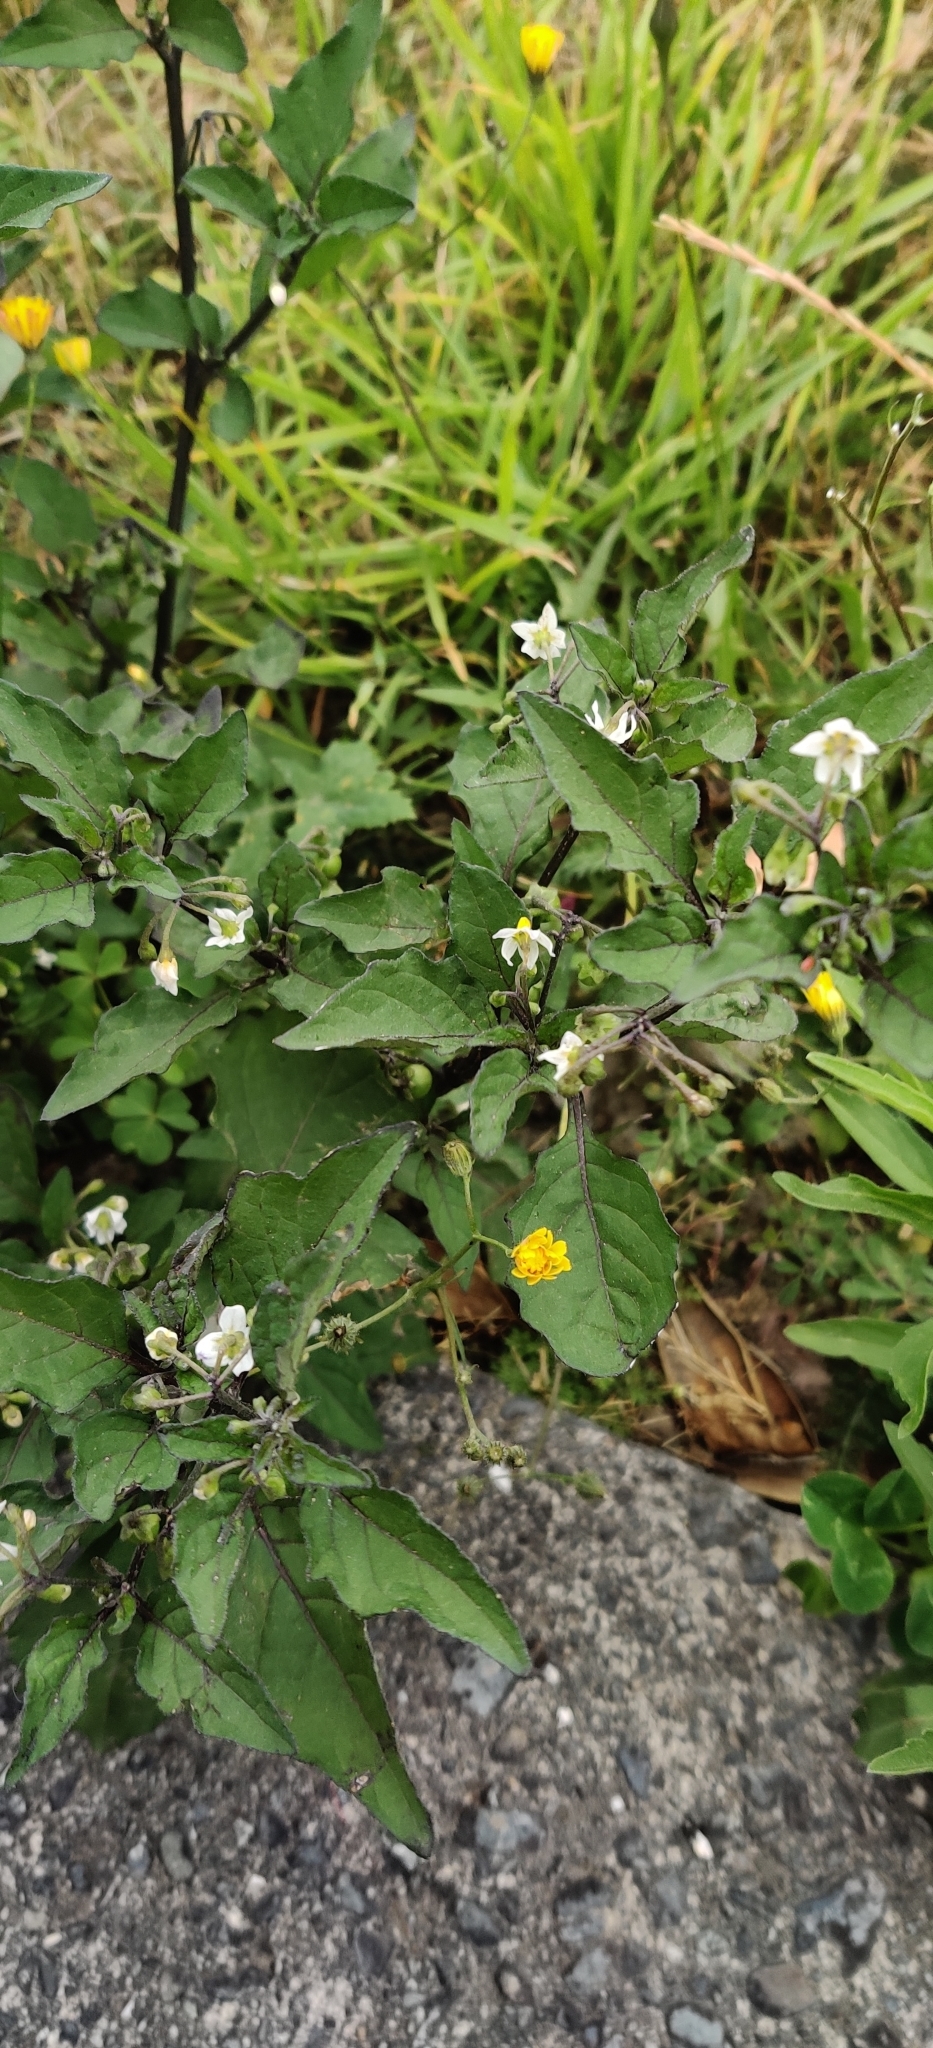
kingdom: Plantae
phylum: Tracheophyta
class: Magnoliopsida
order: Solanales
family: Solanaceae
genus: Solanum
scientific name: Solanum nigrum
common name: Black nightshade
